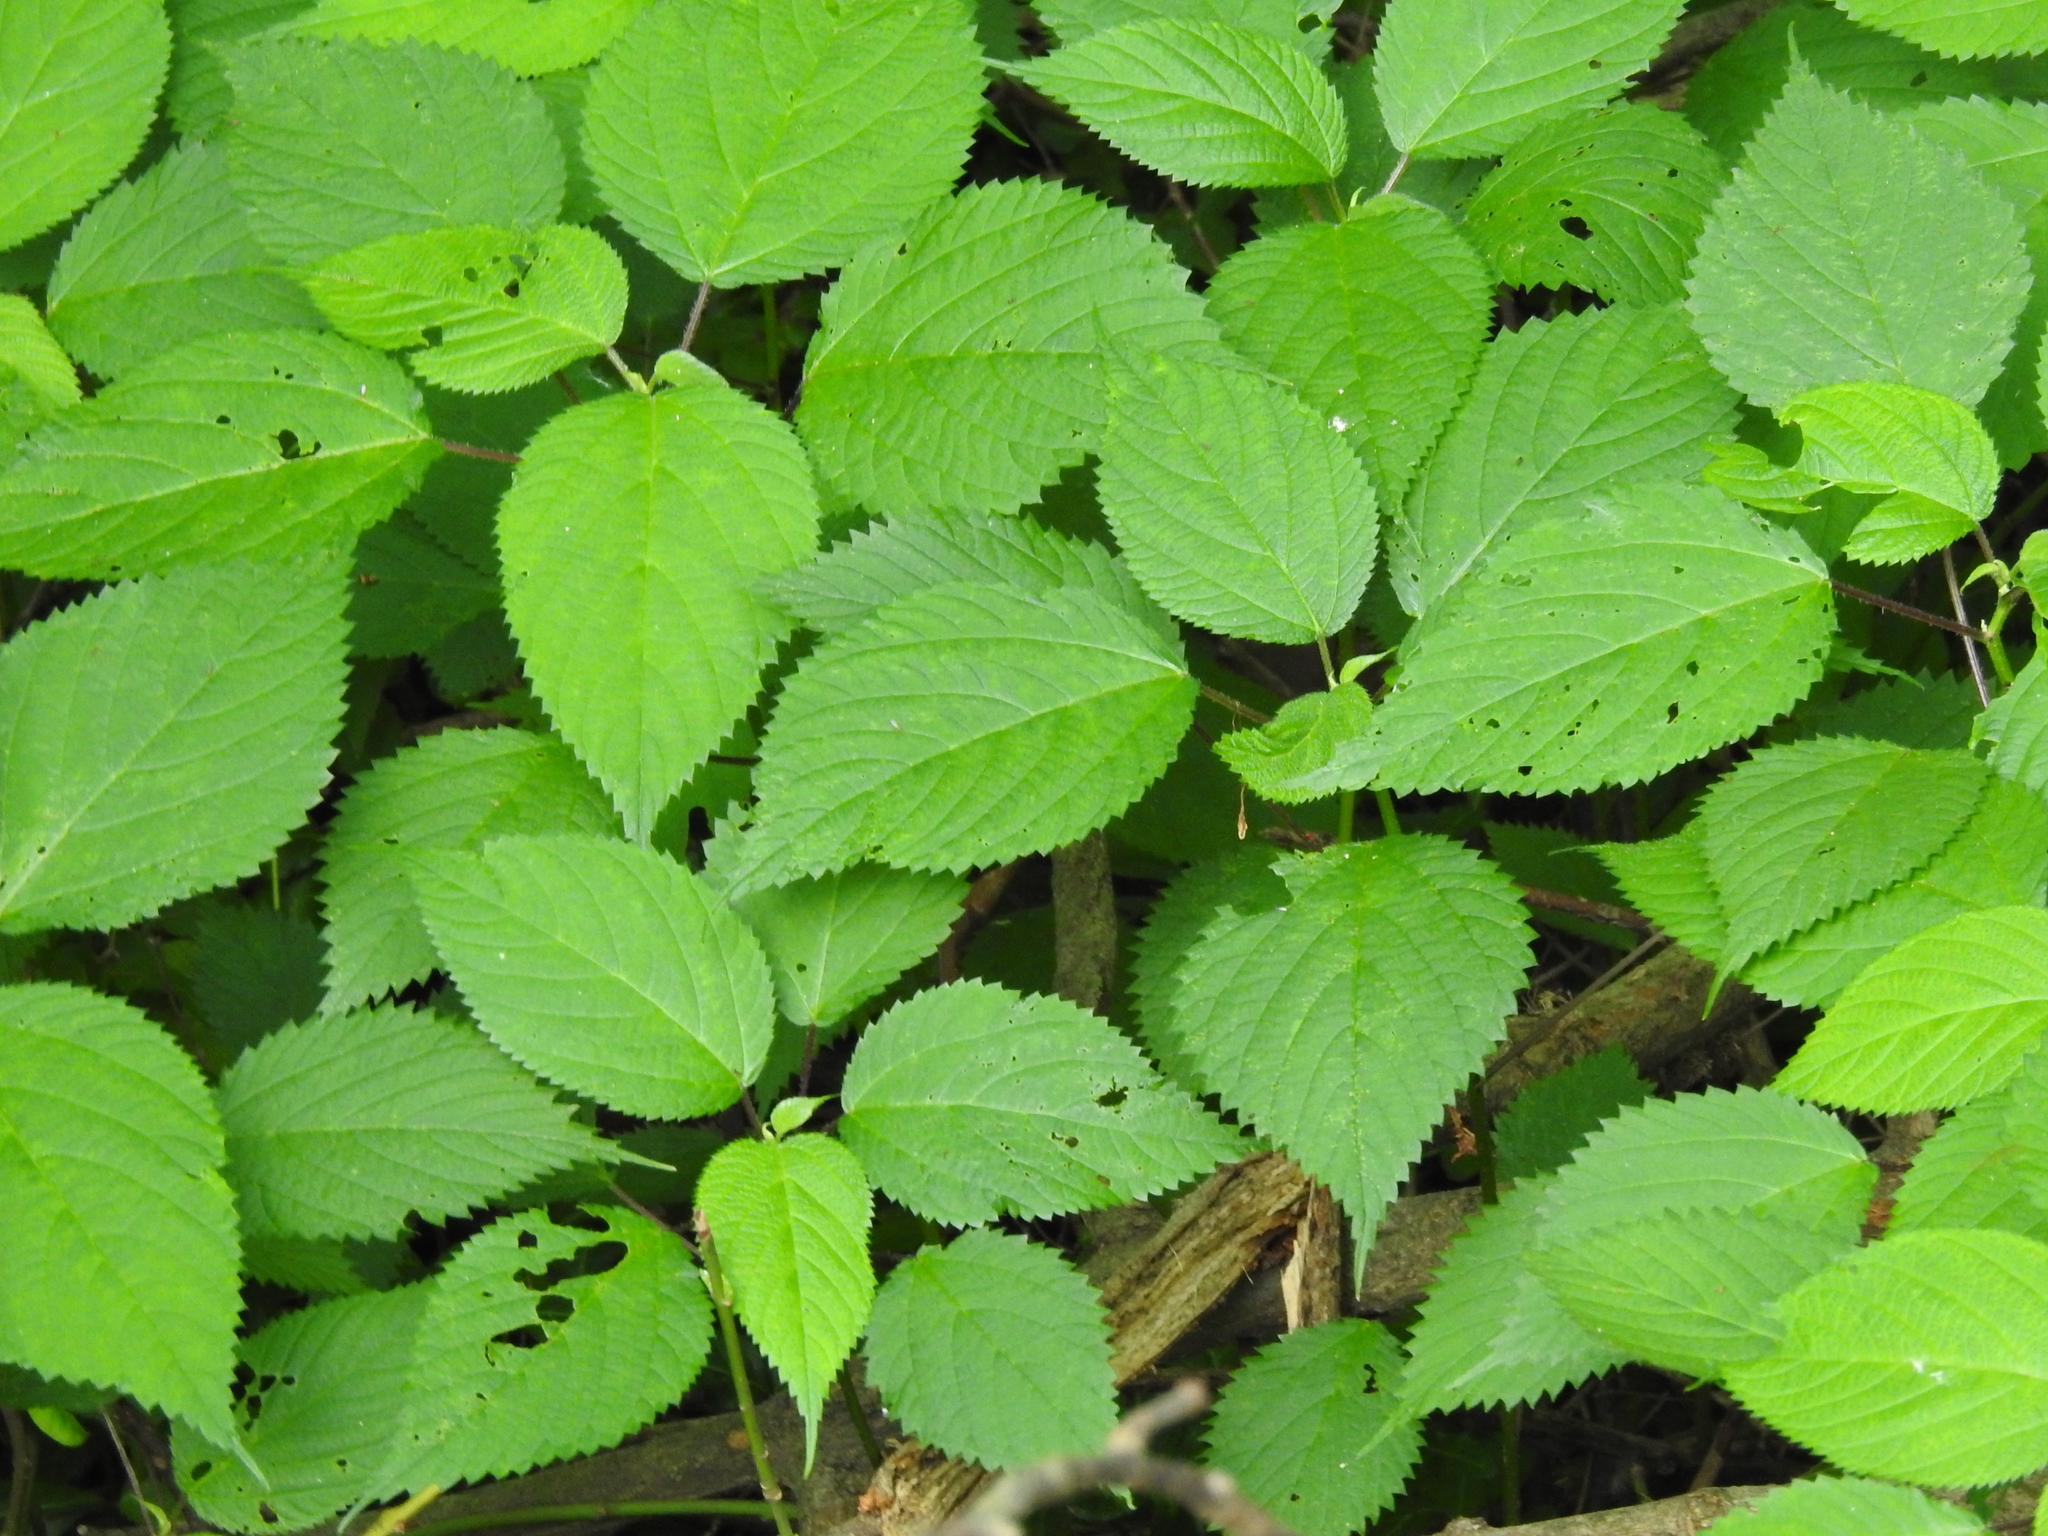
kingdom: Plantae
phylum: Tracheophyta
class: Magnoliopsida
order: Rosales
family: Urticaceae
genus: Laportea
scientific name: Laportea canadensis
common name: Canada nettle
